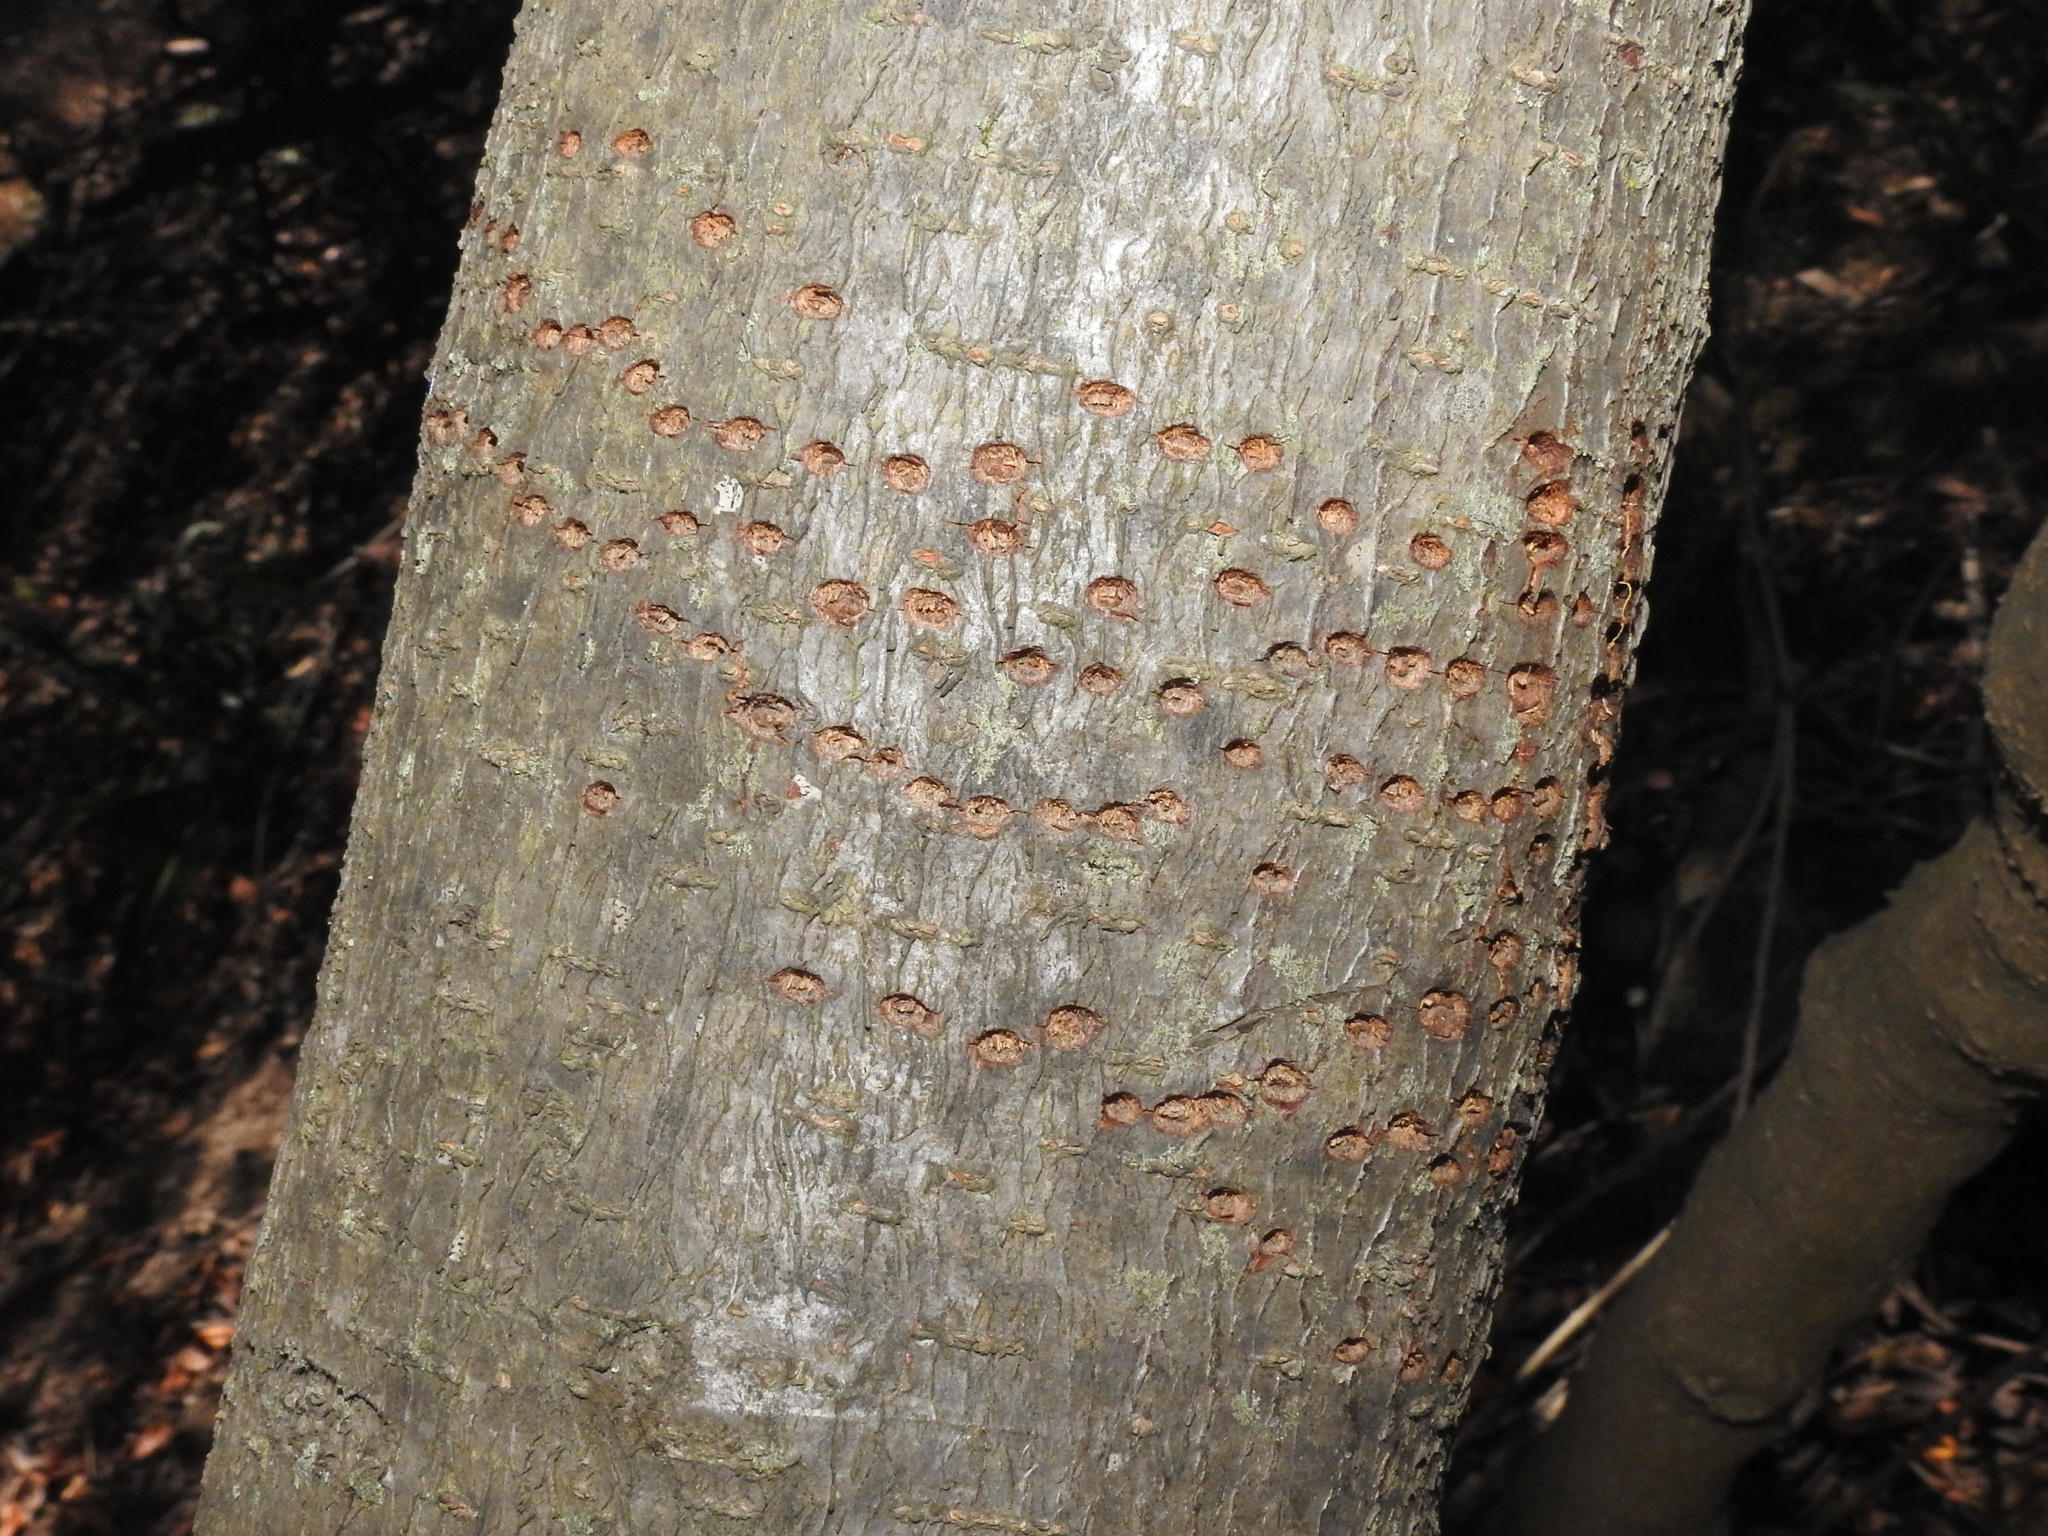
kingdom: Animalia
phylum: Chordata
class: Aves
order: Piciformes
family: Picidae
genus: Sphyrapicus
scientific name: Sphyrapicus
